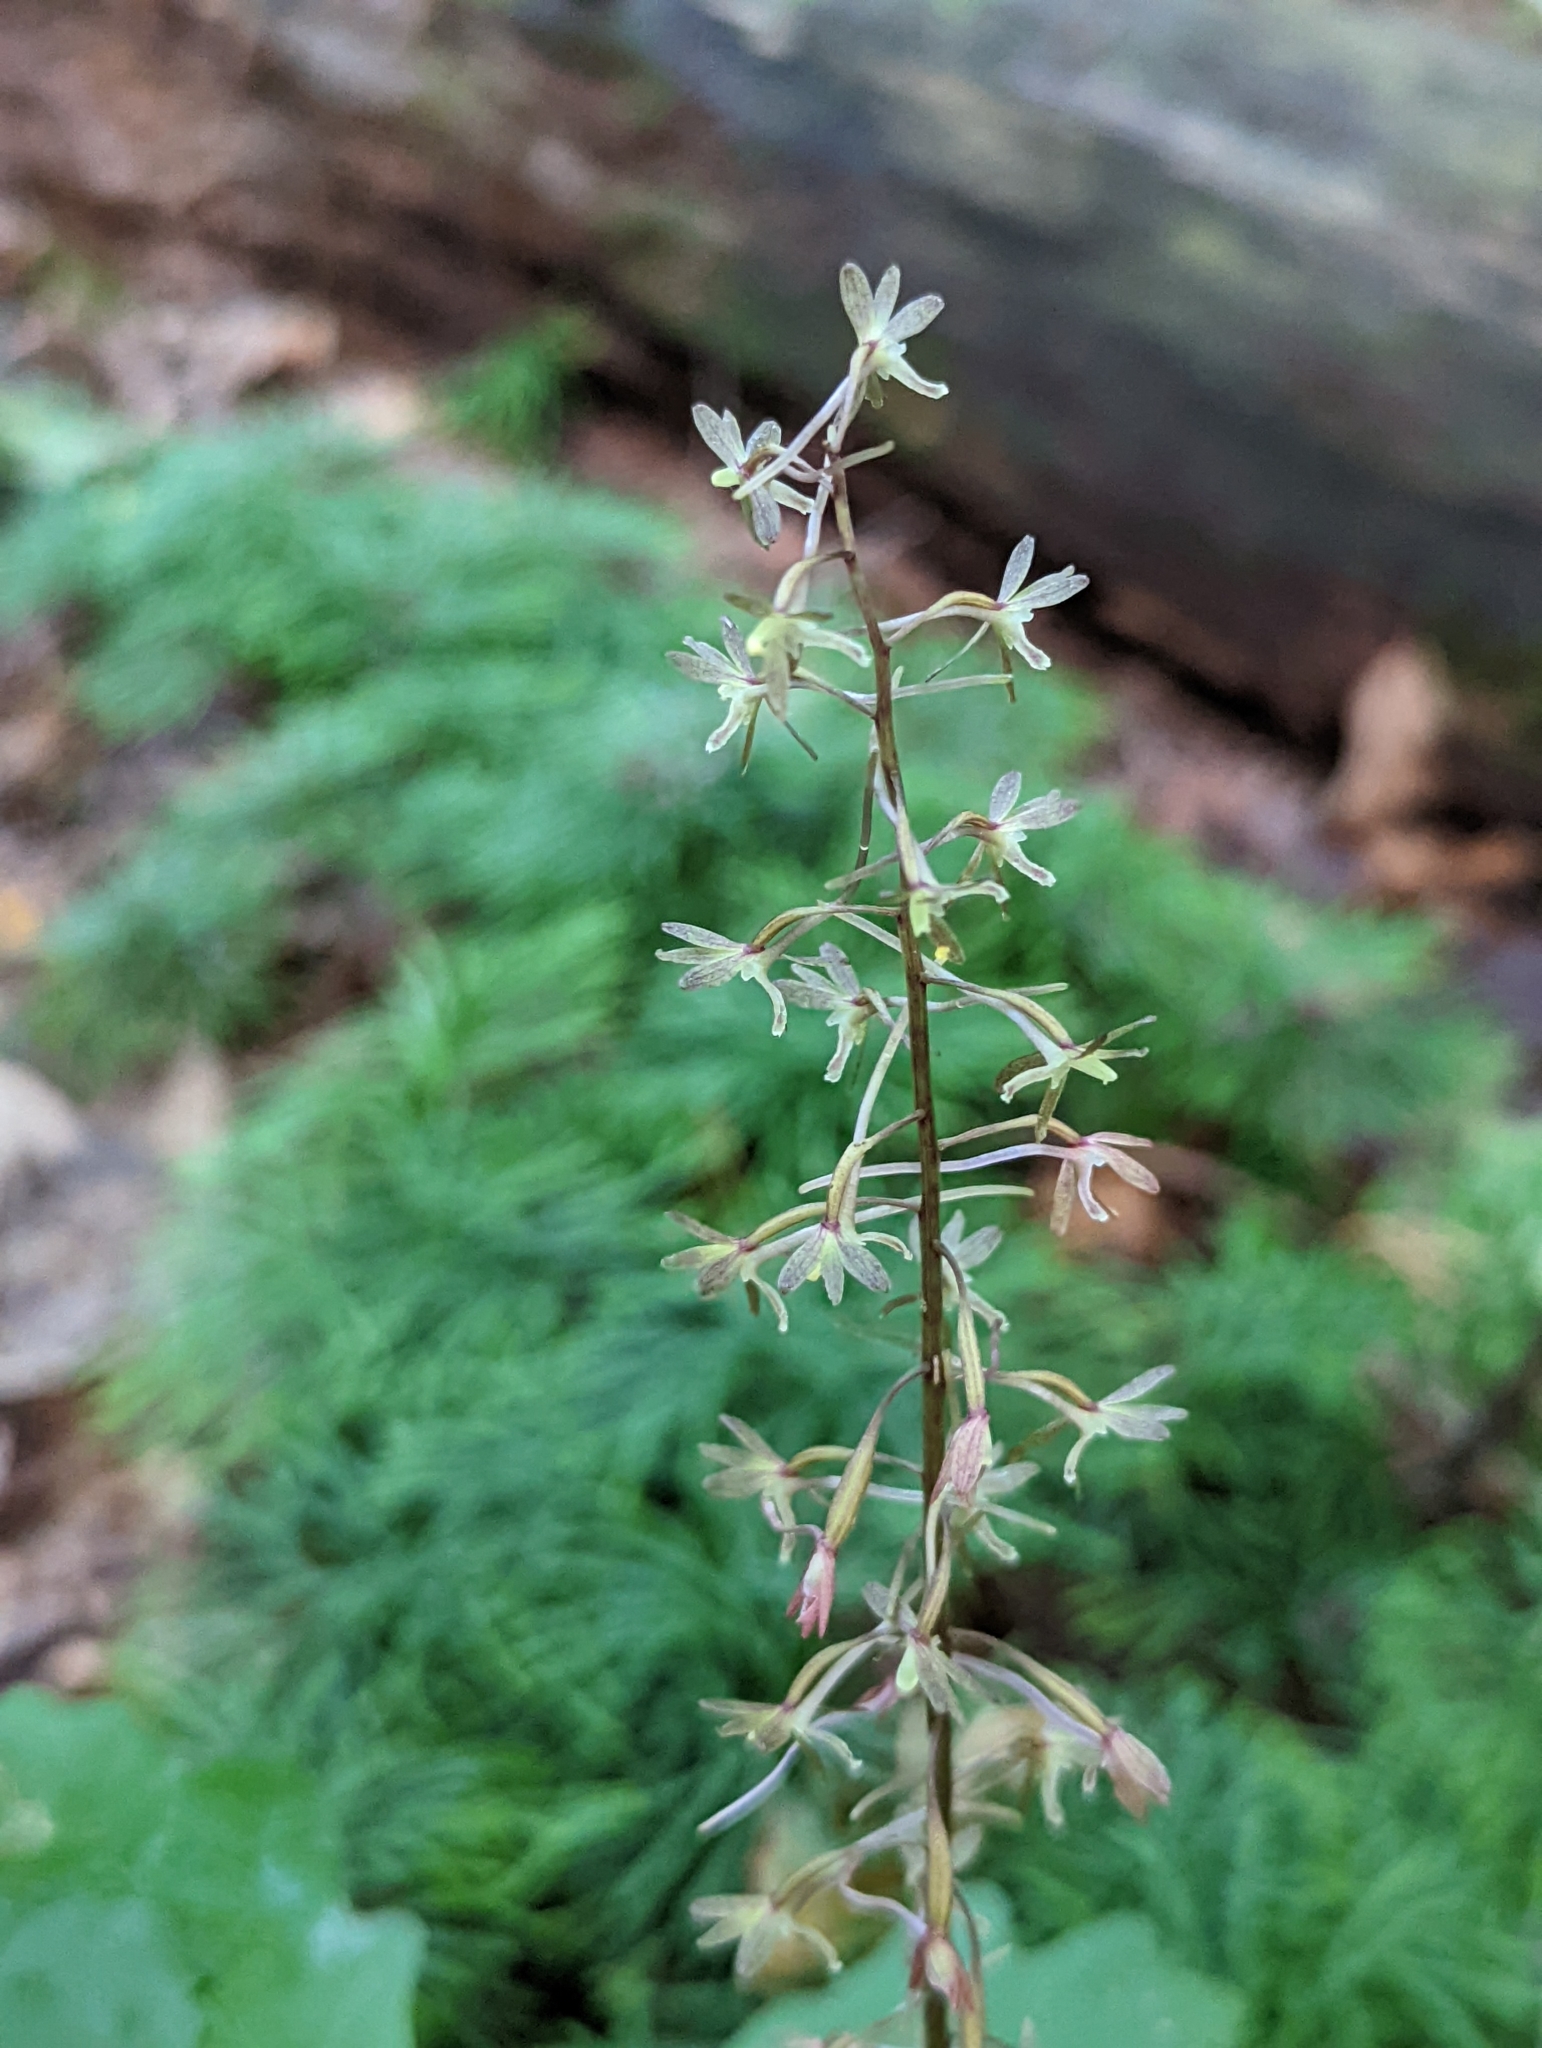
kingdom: Plantae
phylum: Tracheophyta
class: Liliopsida
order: Asparagales
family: Orchidaceae
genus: Tipularia
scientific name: Tipularia discolor
